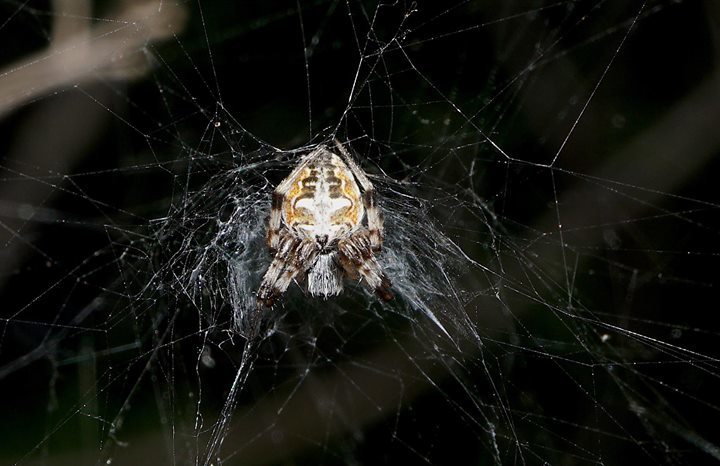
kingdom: Animalia
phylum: Arthropoda
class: Arachnida
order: Araneae
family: Araneidae
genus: Metepeira
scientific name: Metepeira labyrinthea
